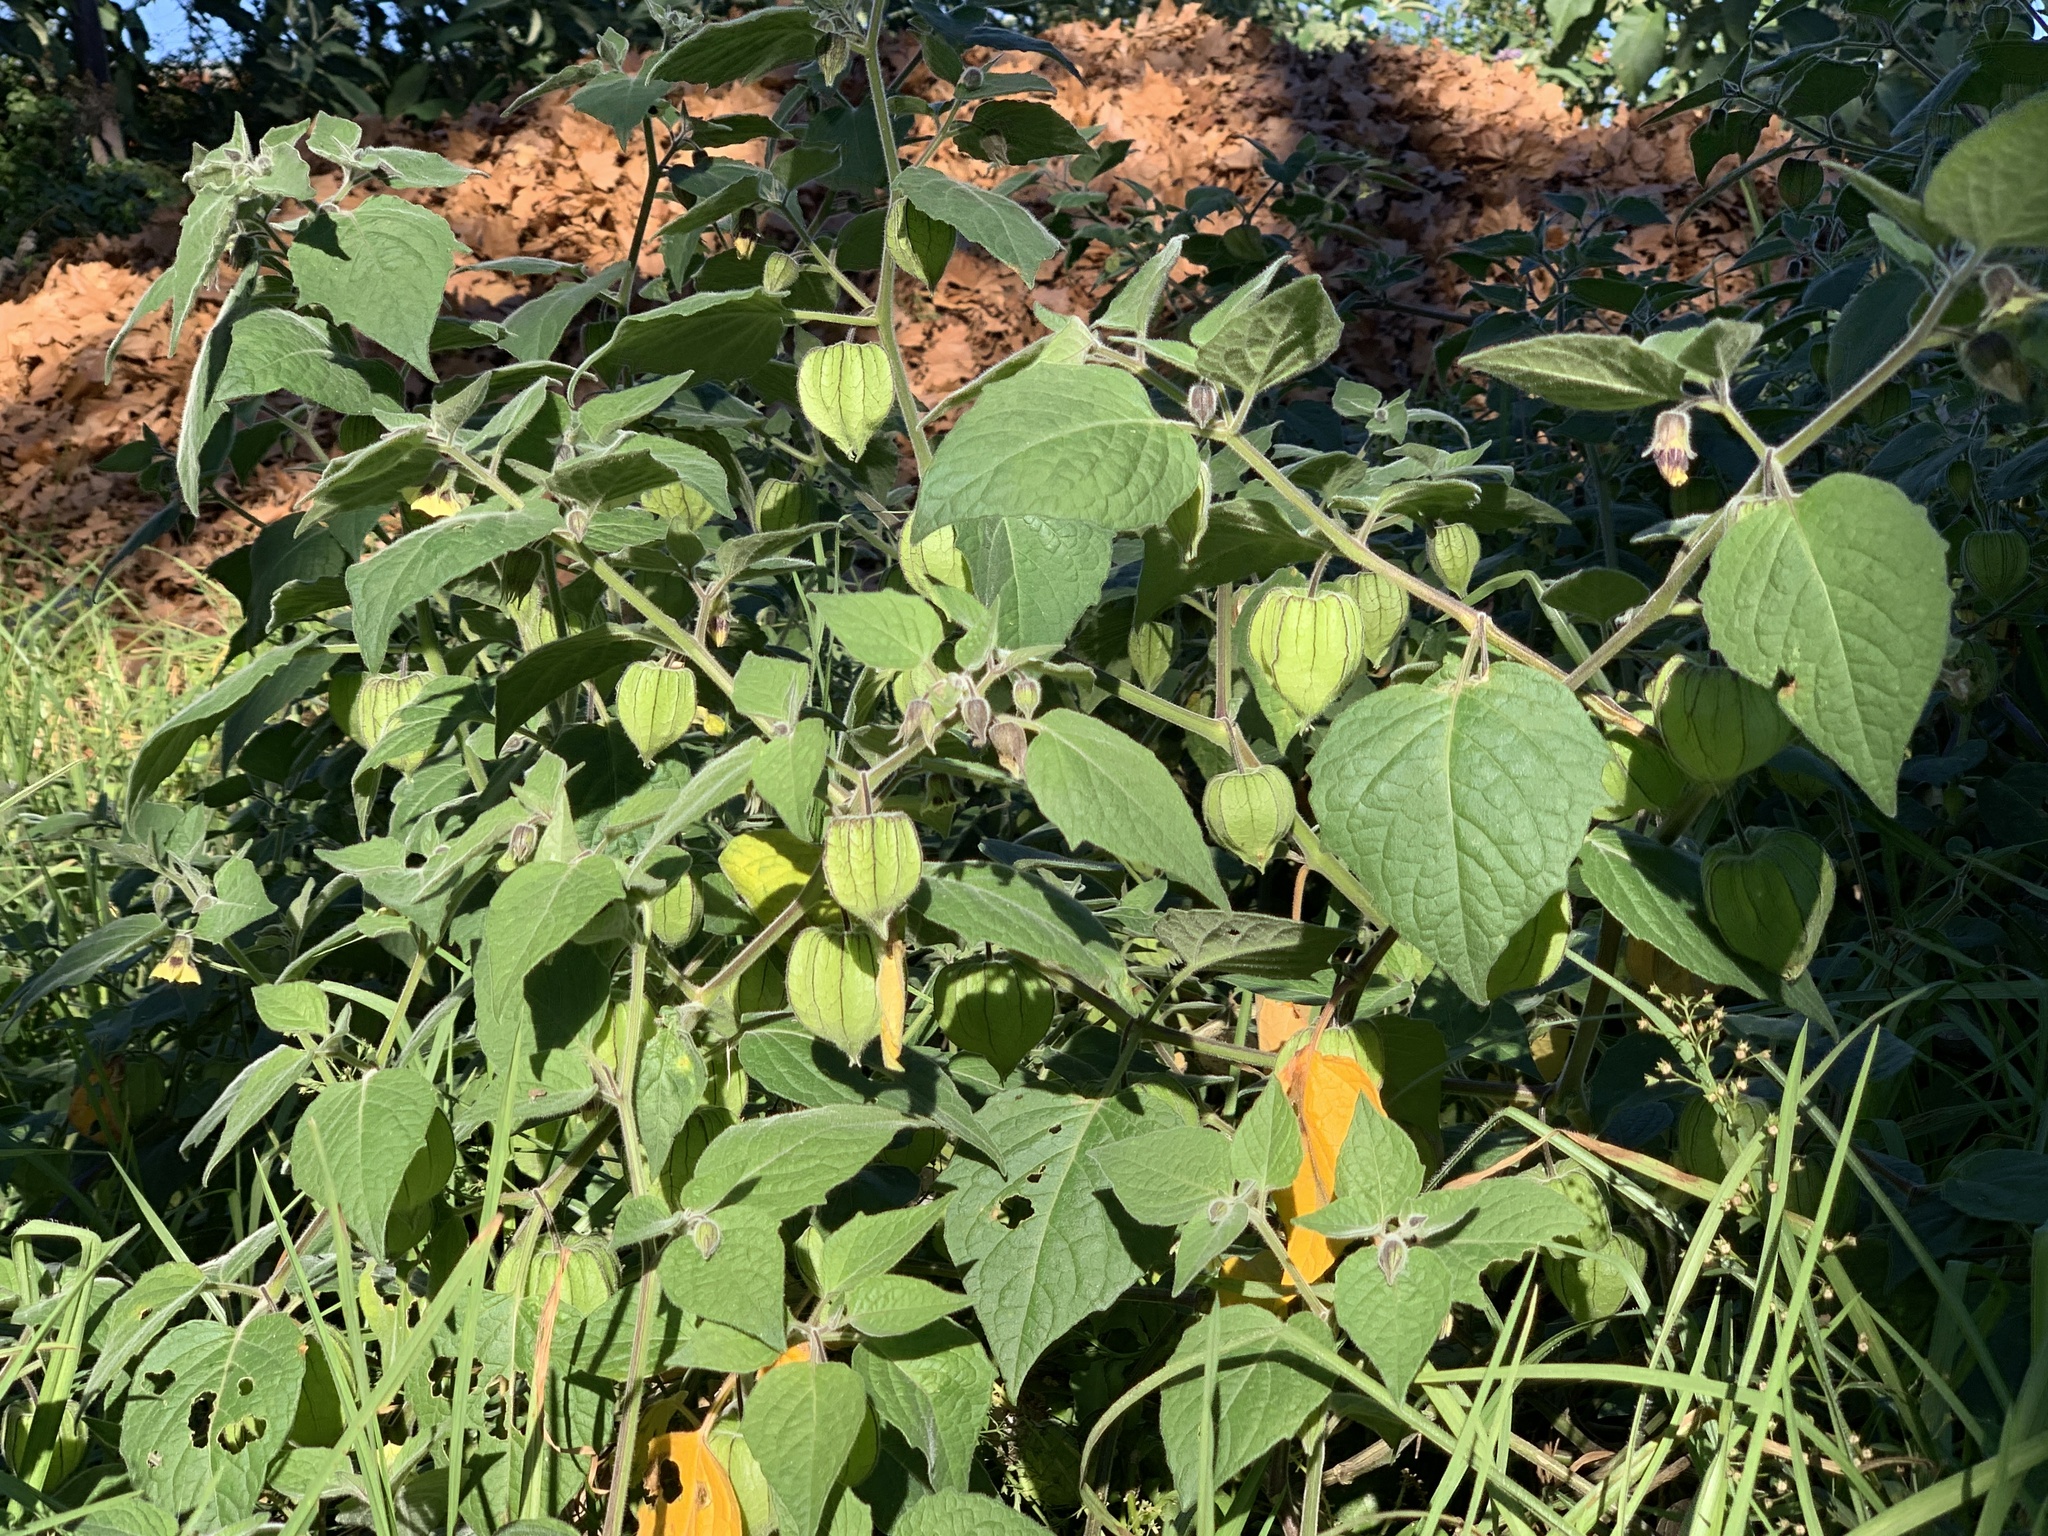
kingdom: Plantae
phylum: Tracheophyta
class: Magnoliopsida
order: Solanales
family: Solanaceae
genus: Physalis
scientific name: Physalis peruviana
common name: Cape-gooseberry
